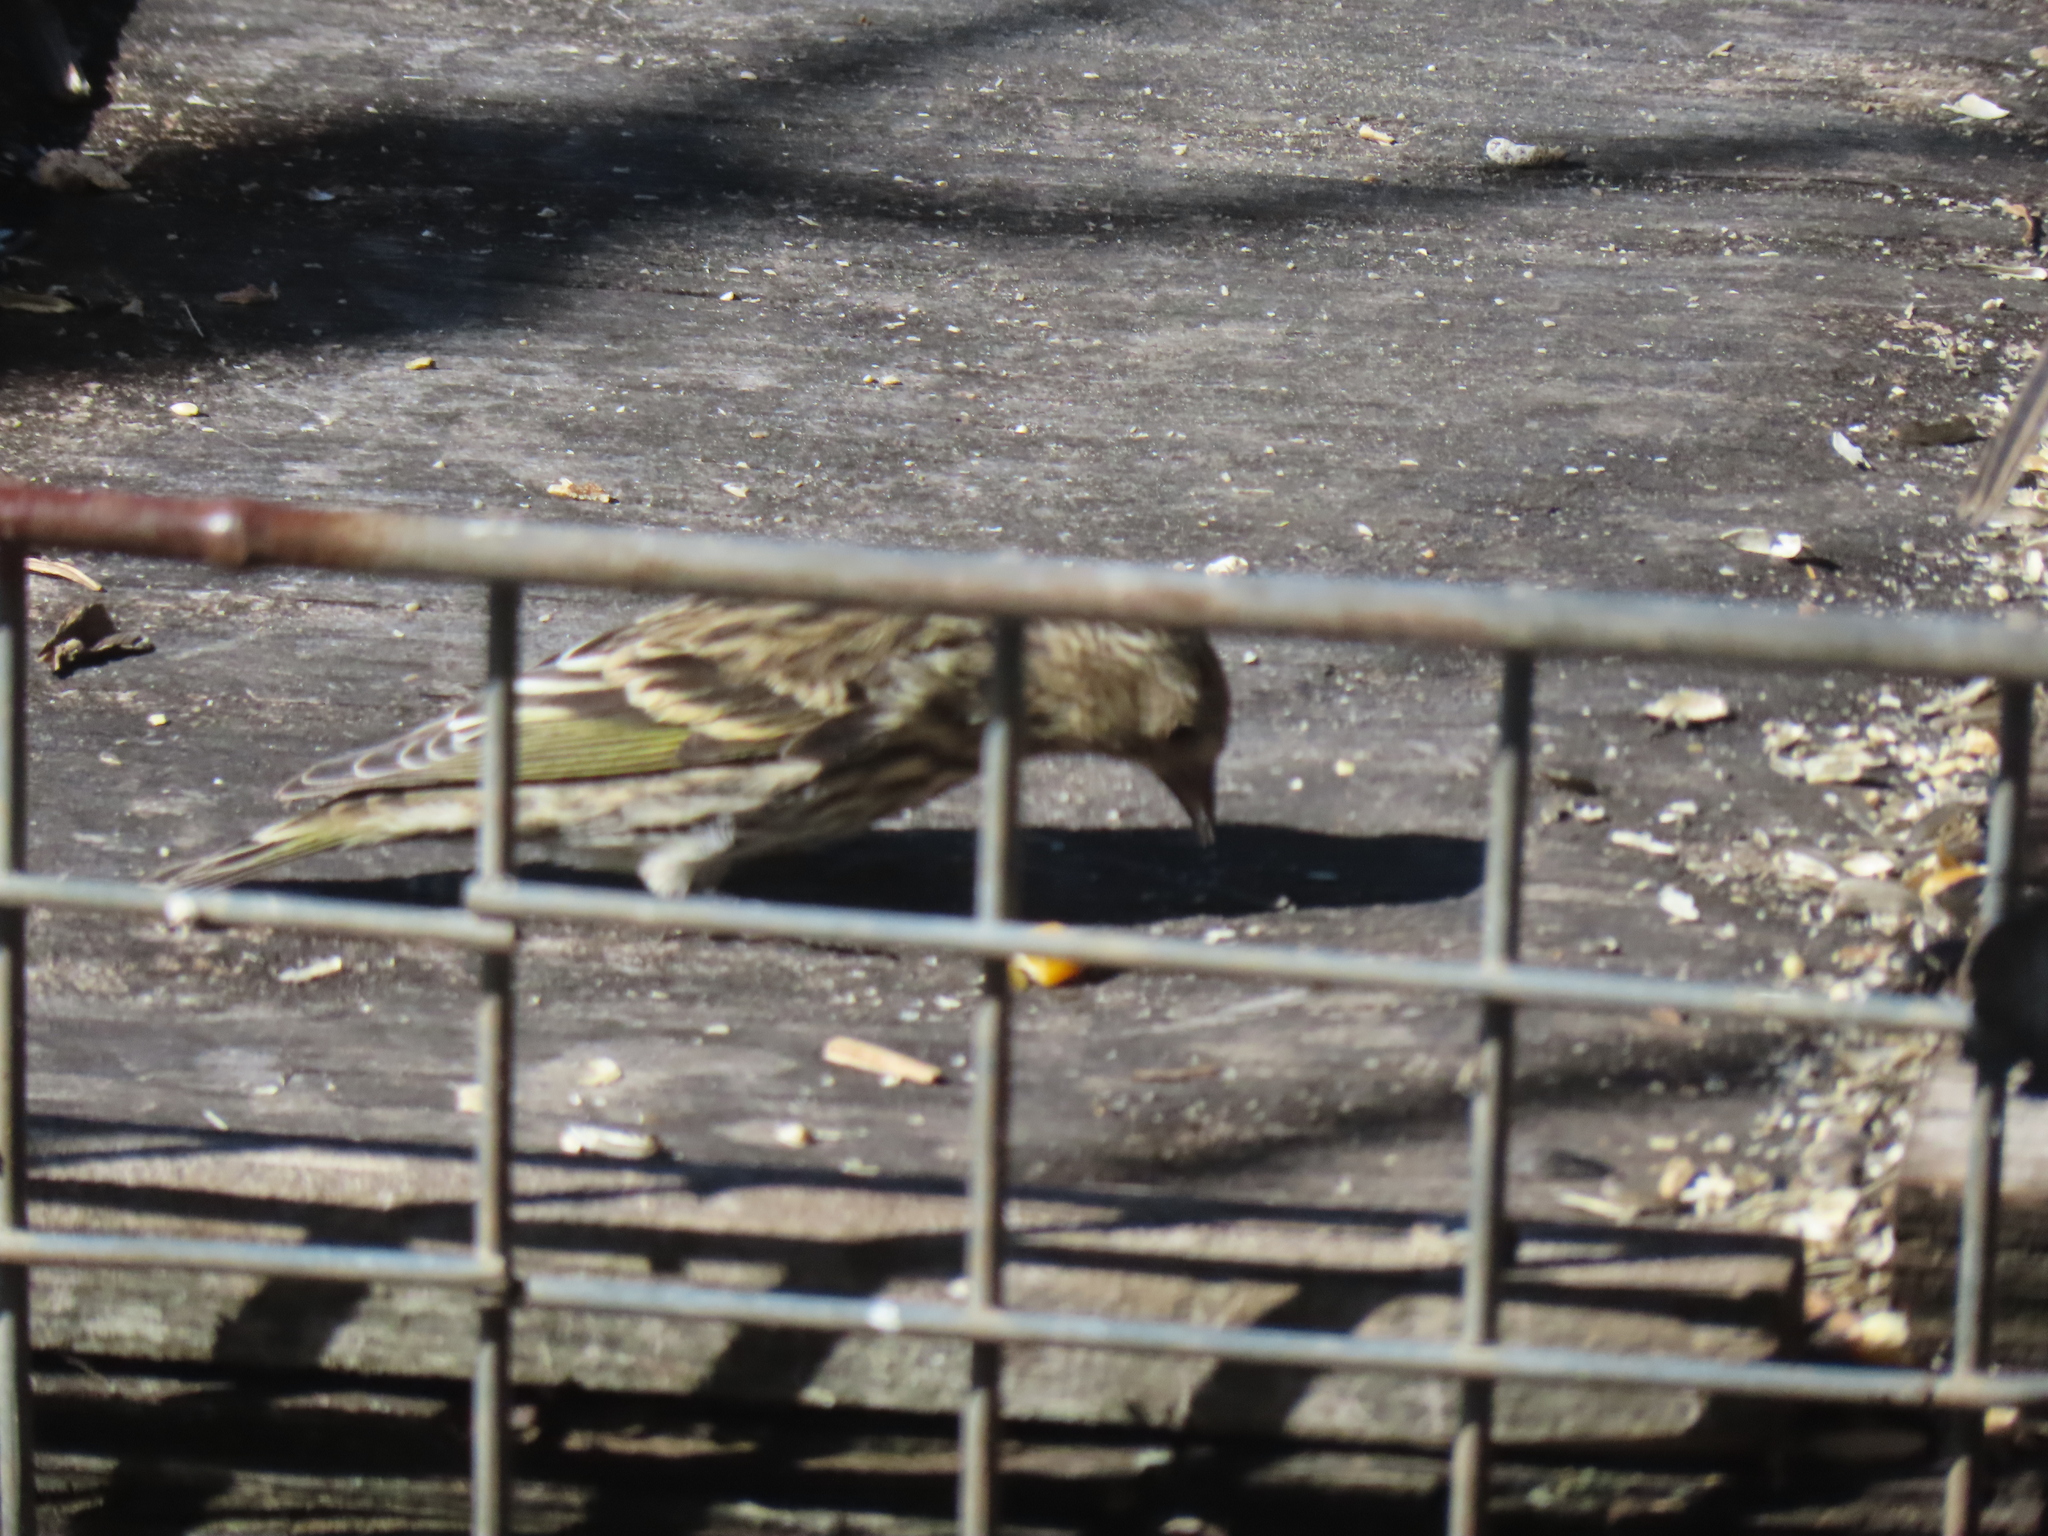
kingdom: Animalia
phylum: Chordata
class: Aves
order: Passeriformes
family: Fringillidae
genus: Spinus
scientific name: Spinus pinus
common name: Pine siskin
